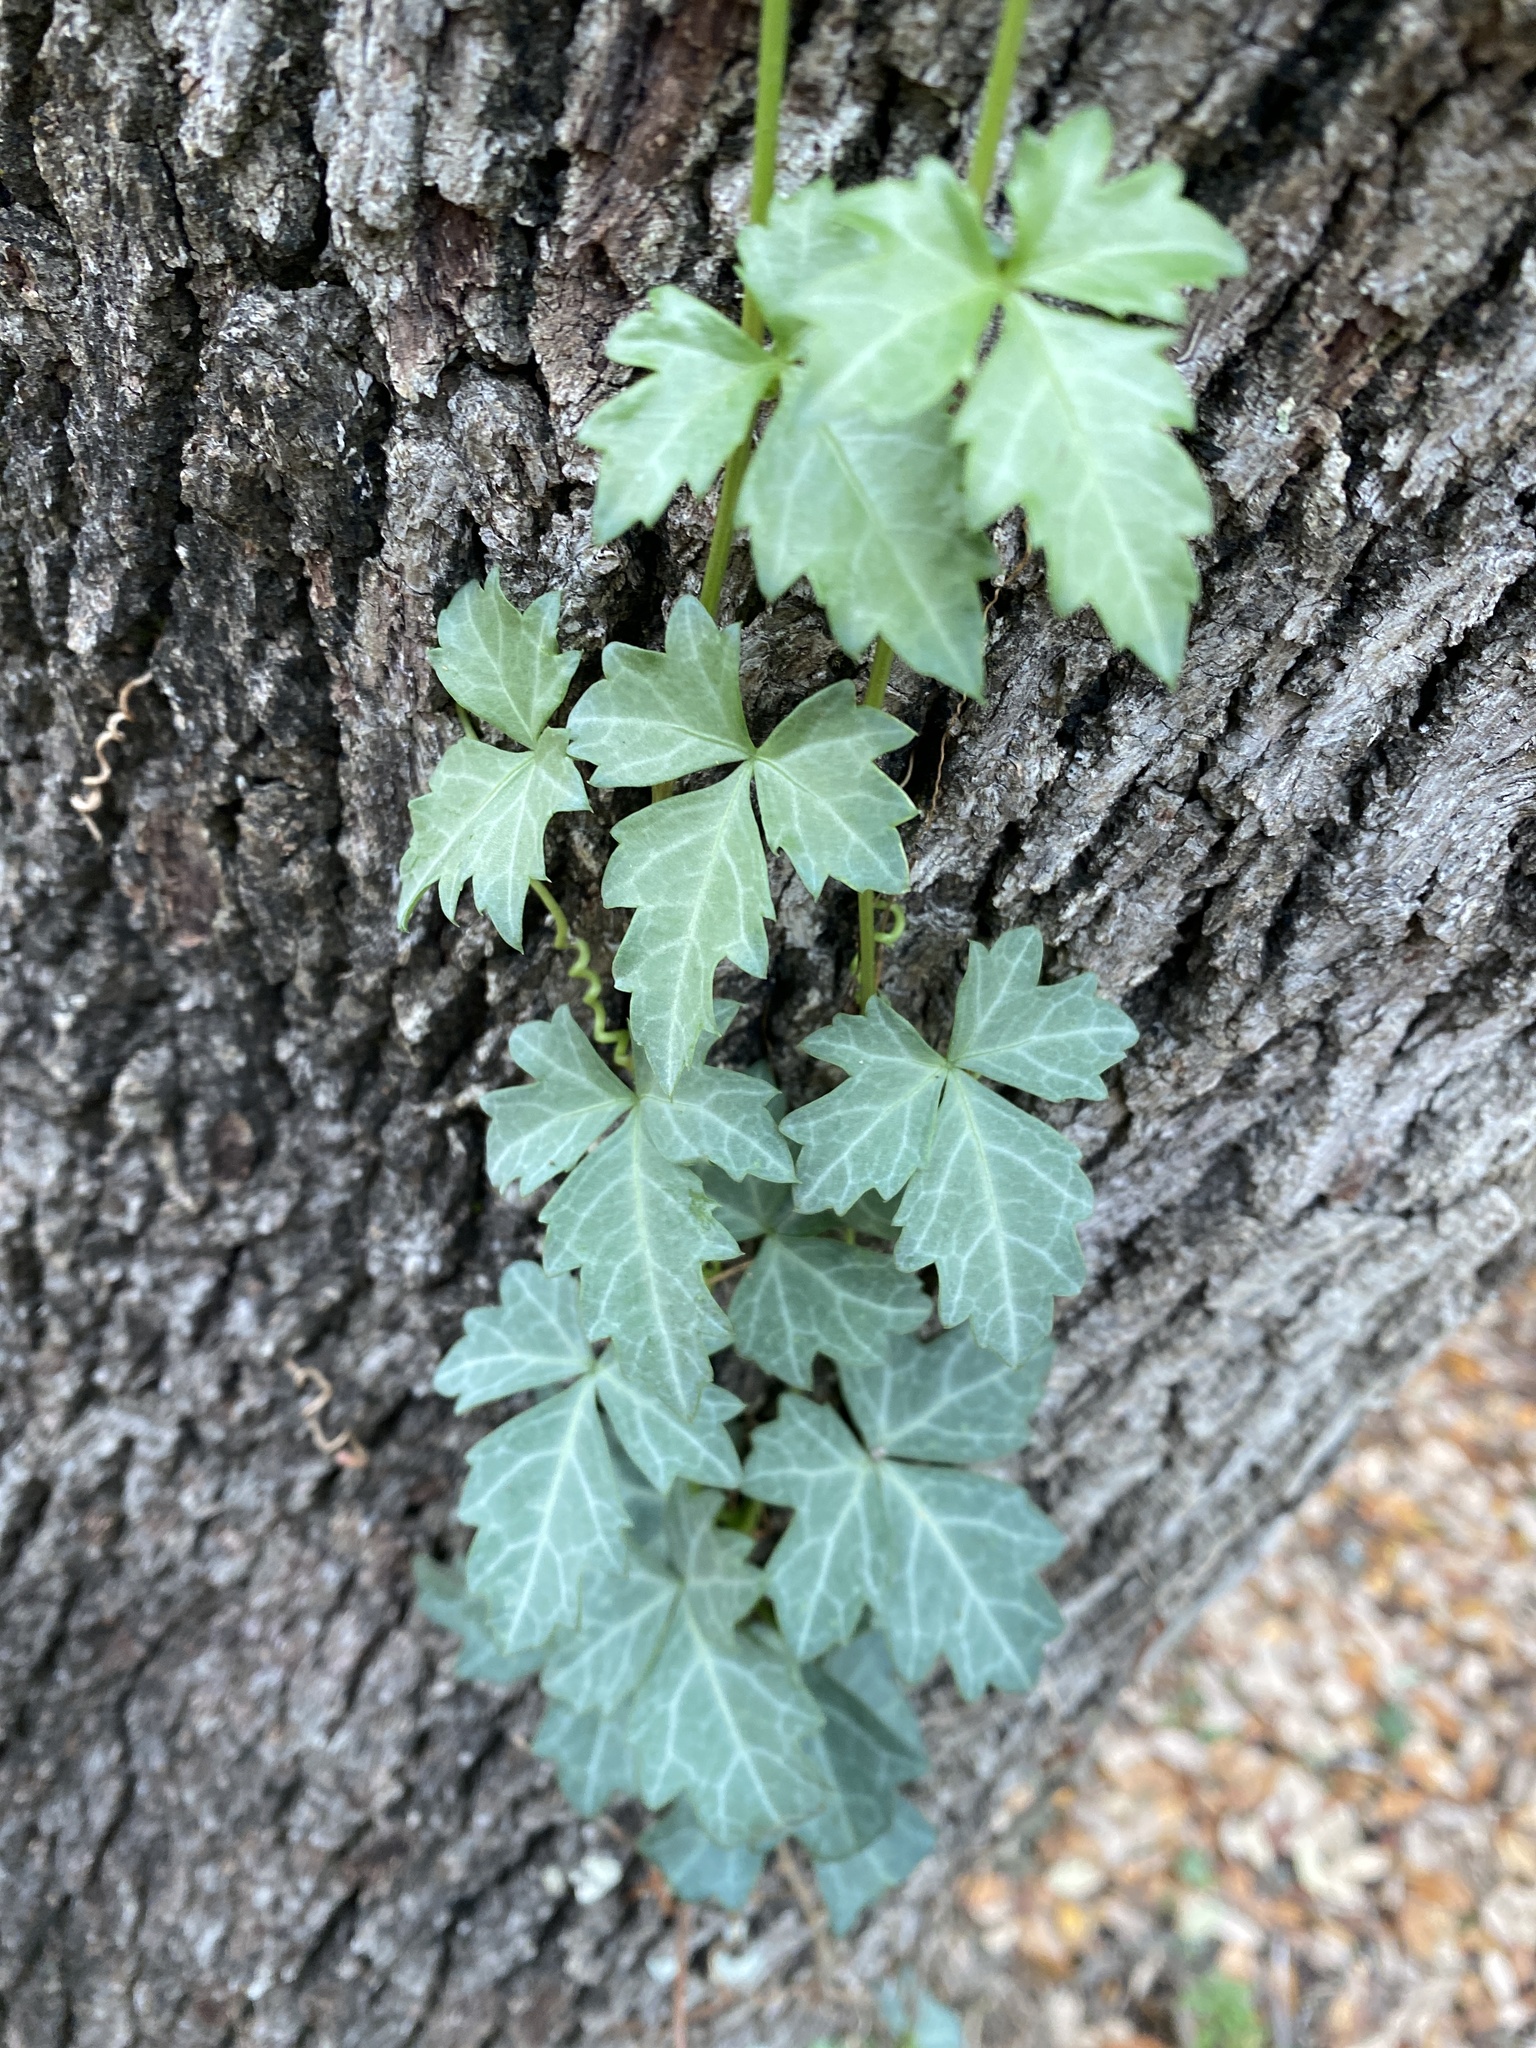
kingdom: Plantae
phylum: Tracheophyta
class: Magnoliopsida
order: Vitales
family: Vitaceae
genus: Cissus
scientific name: Cissus trifoliata
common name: Vine-sorrel
